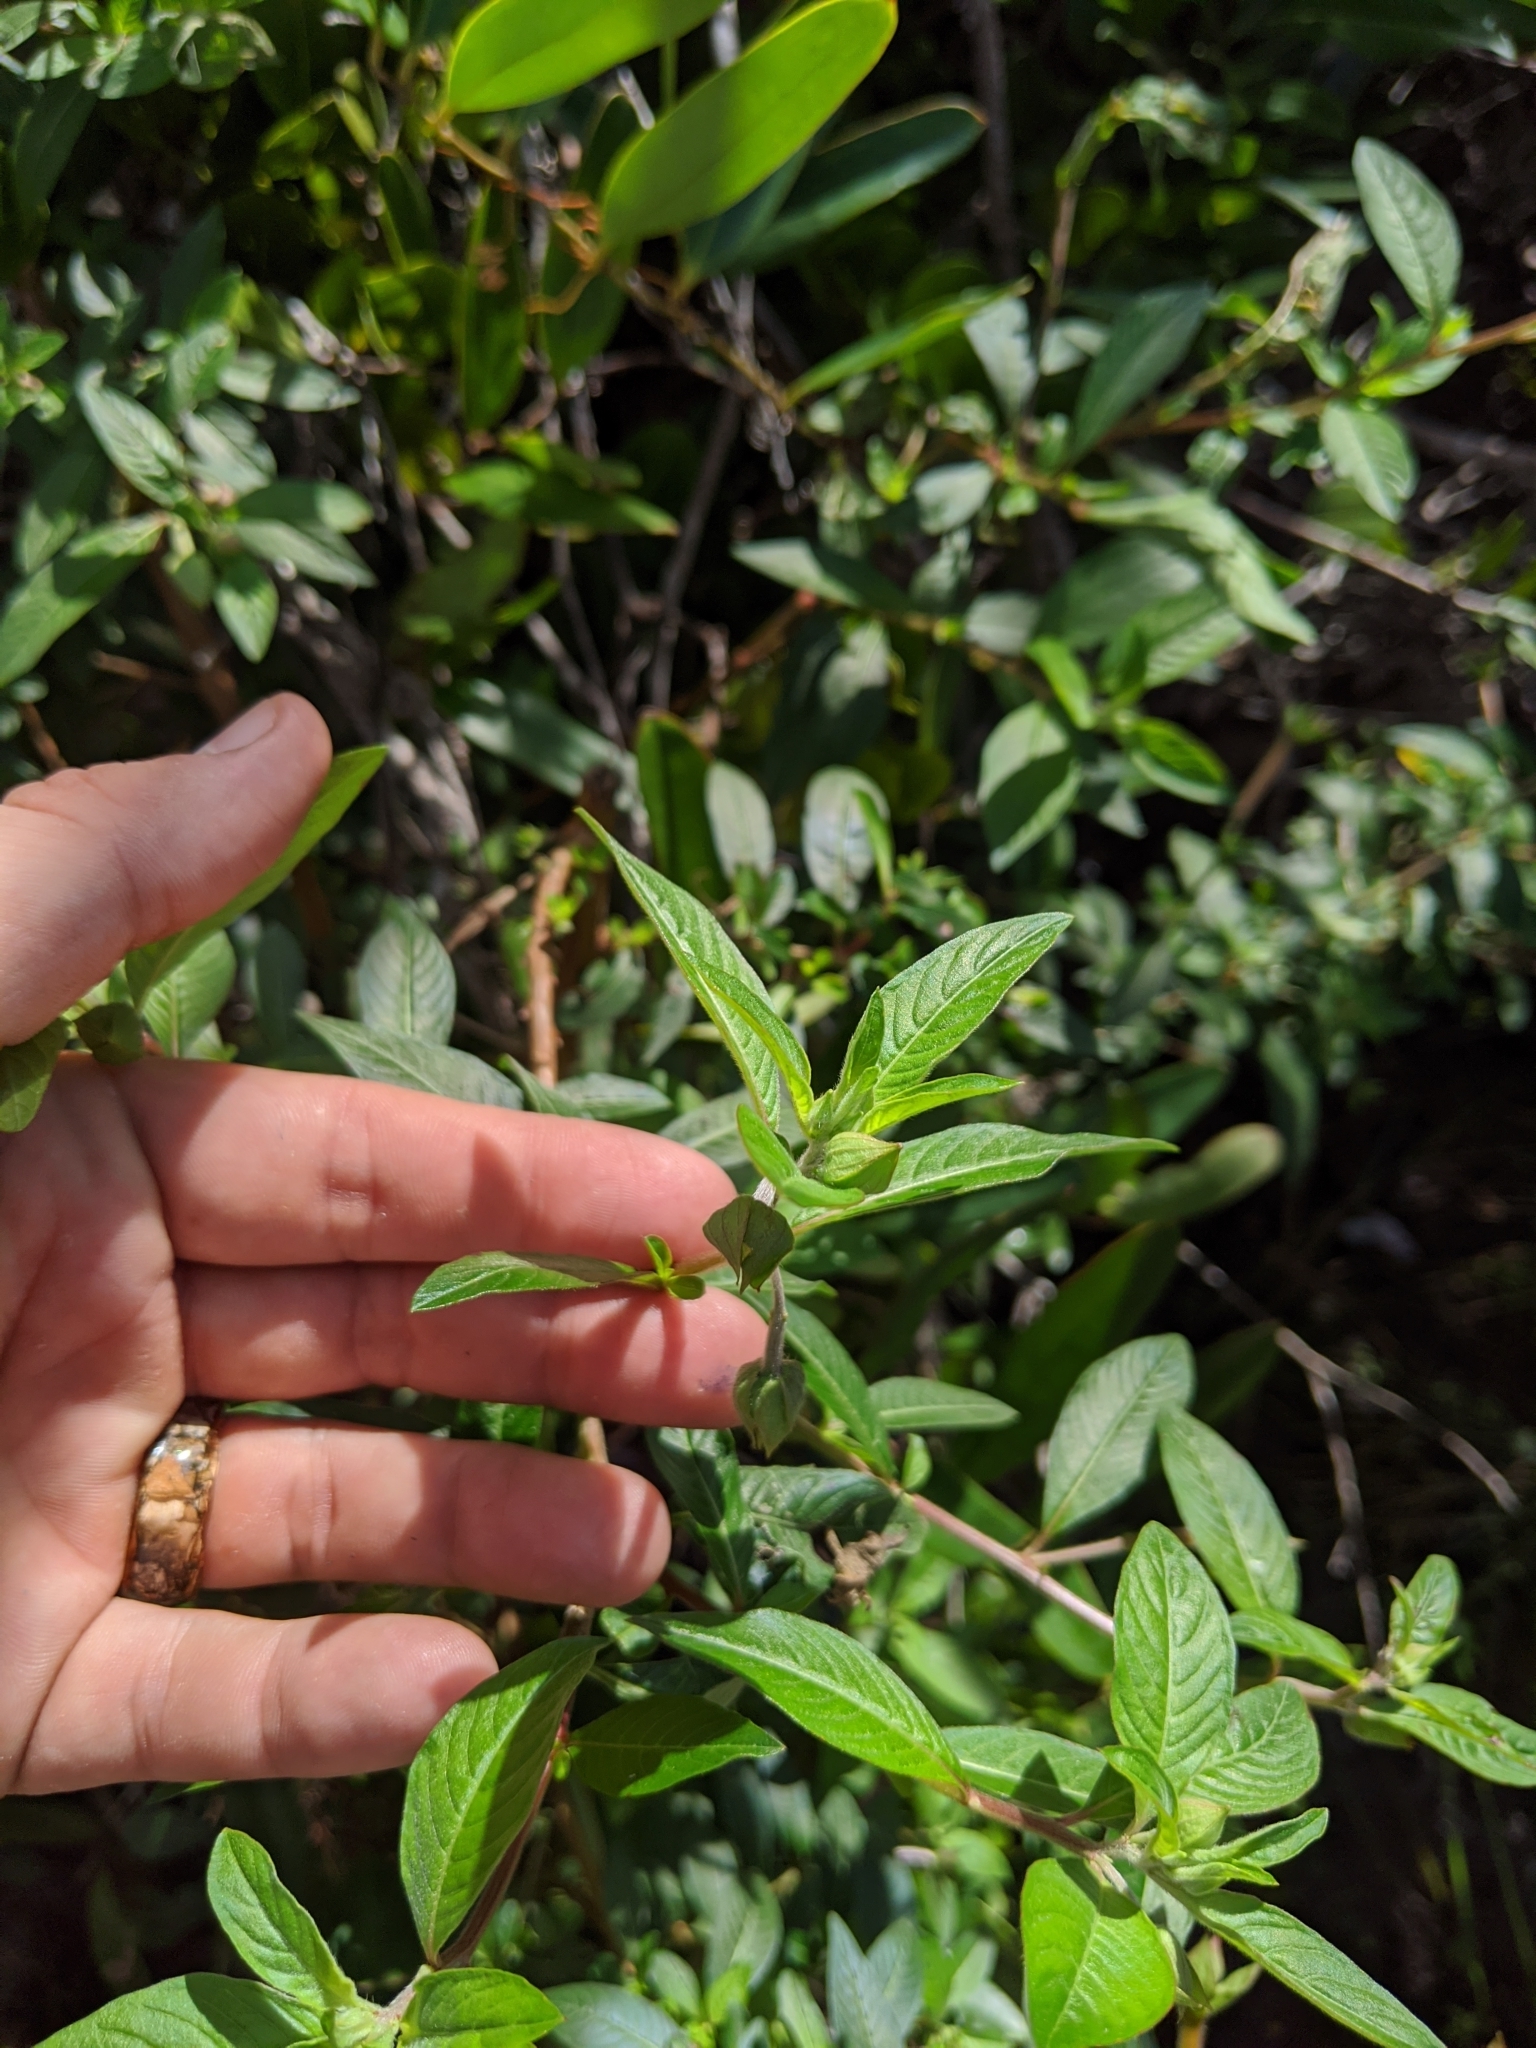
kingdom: Plantae
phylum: Tracheophyta
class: Magnoliopsida
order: Myrtales
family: Onagraceae
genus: Ludwigia
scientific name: Ludwigia octovalvis
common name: Water-primrose
